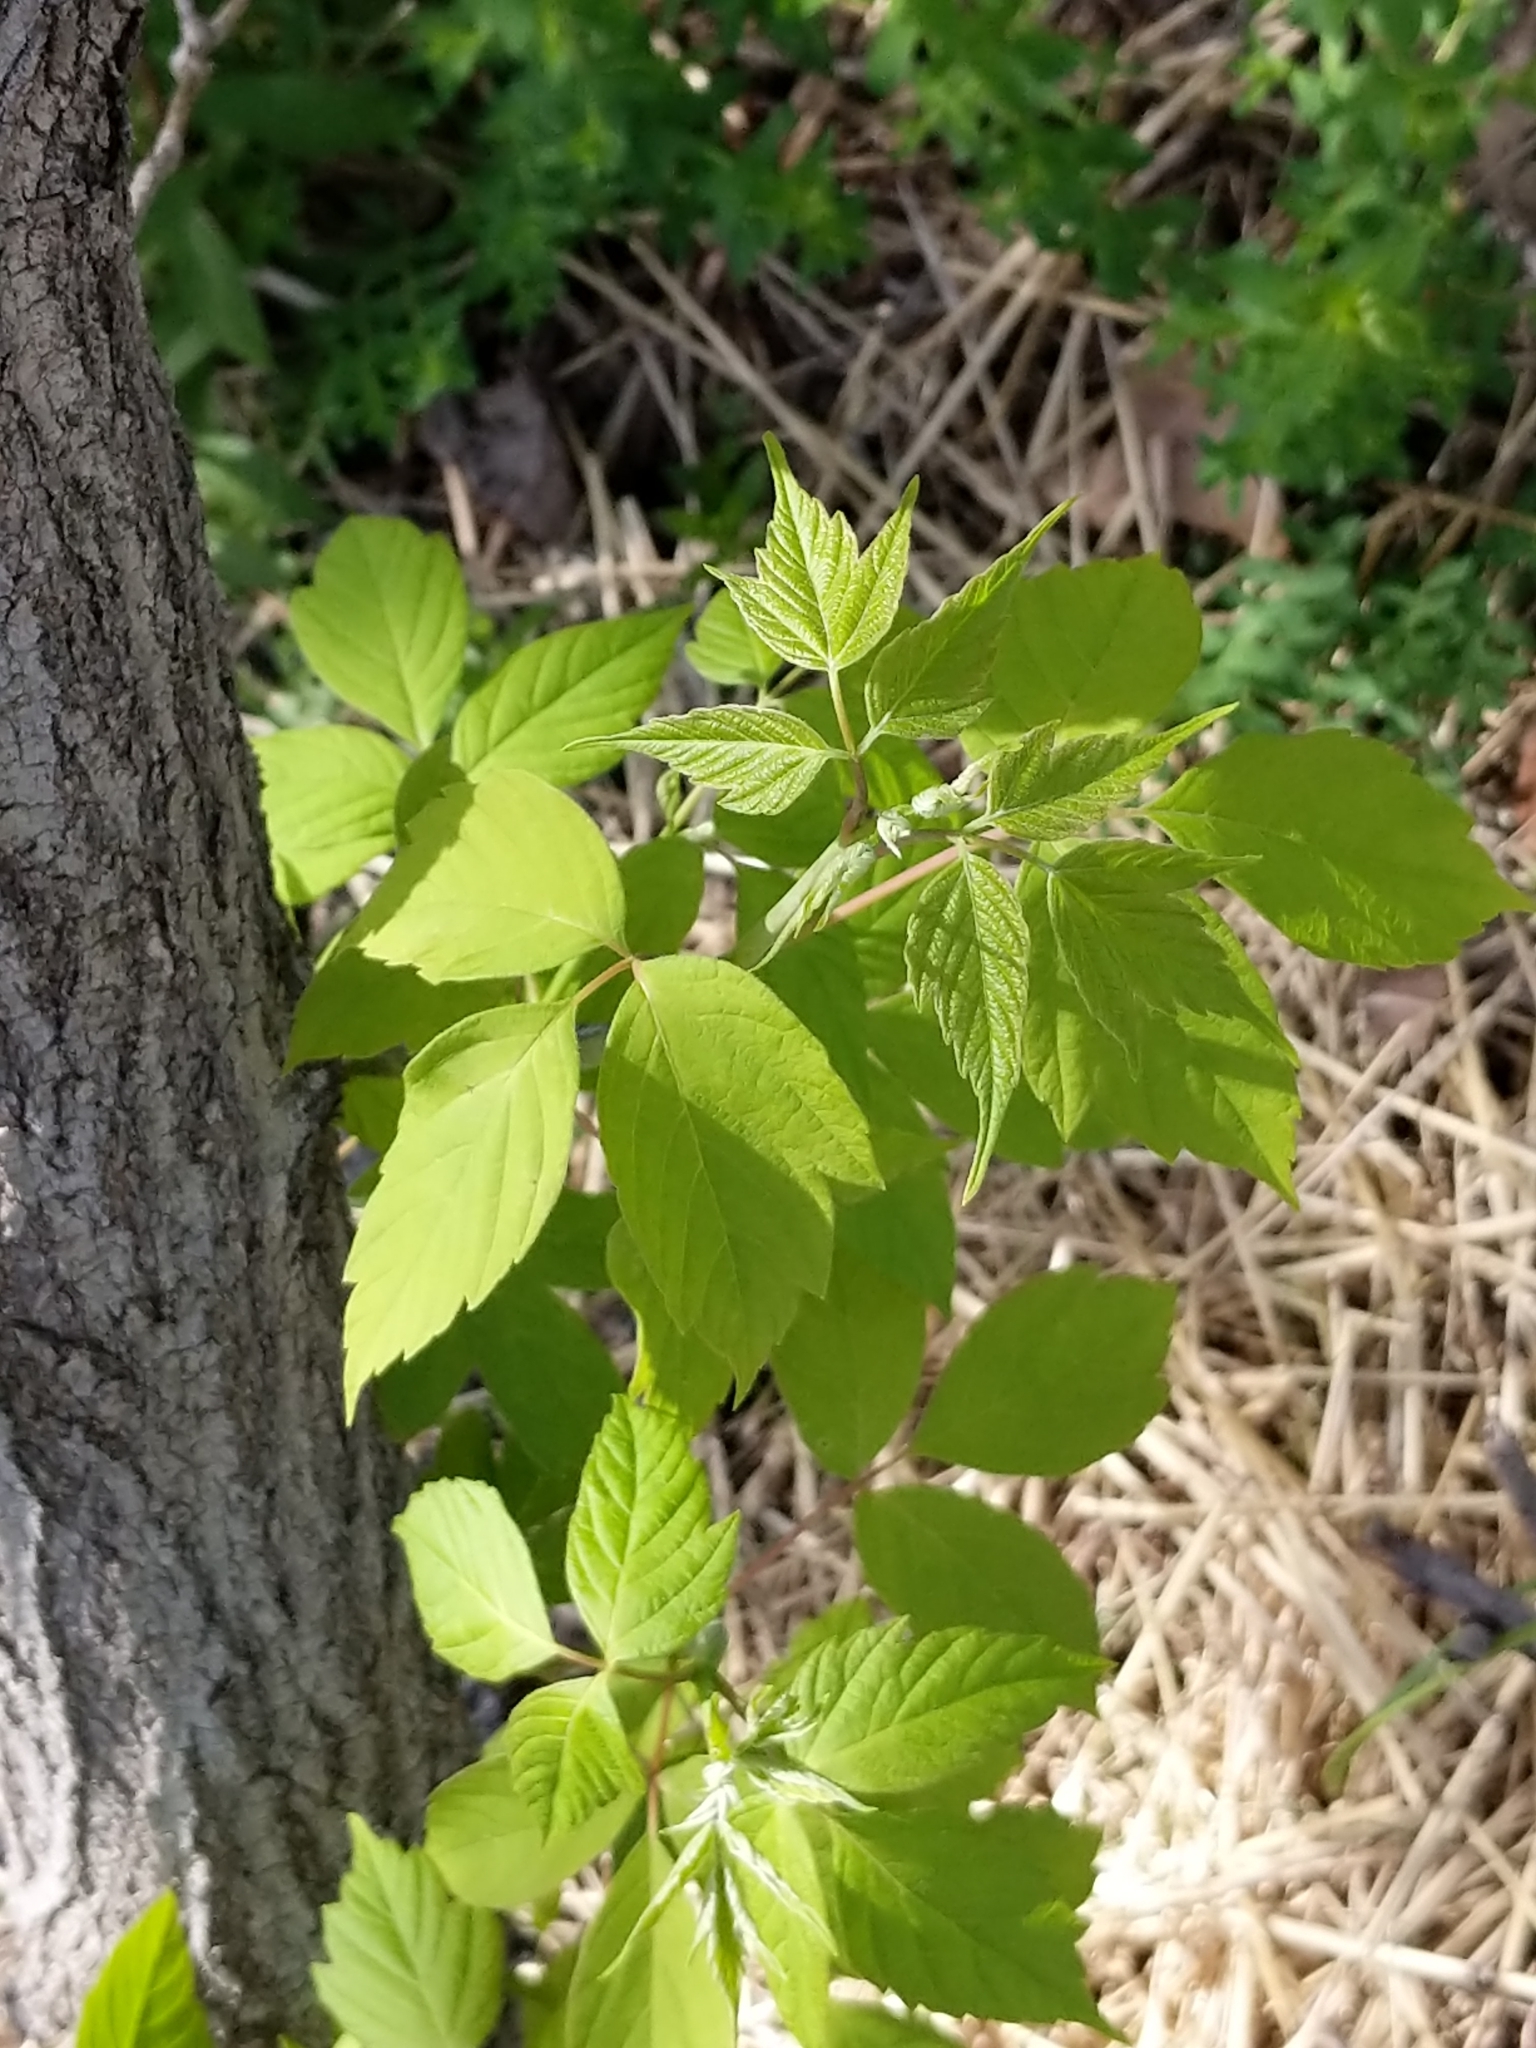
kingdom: Plantae
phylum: Tracheophyta
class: Magnoliopsida
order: Sapindales
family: Sapindaceae
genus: Acer
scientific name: Acer negundo
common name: Ashleaf maple
